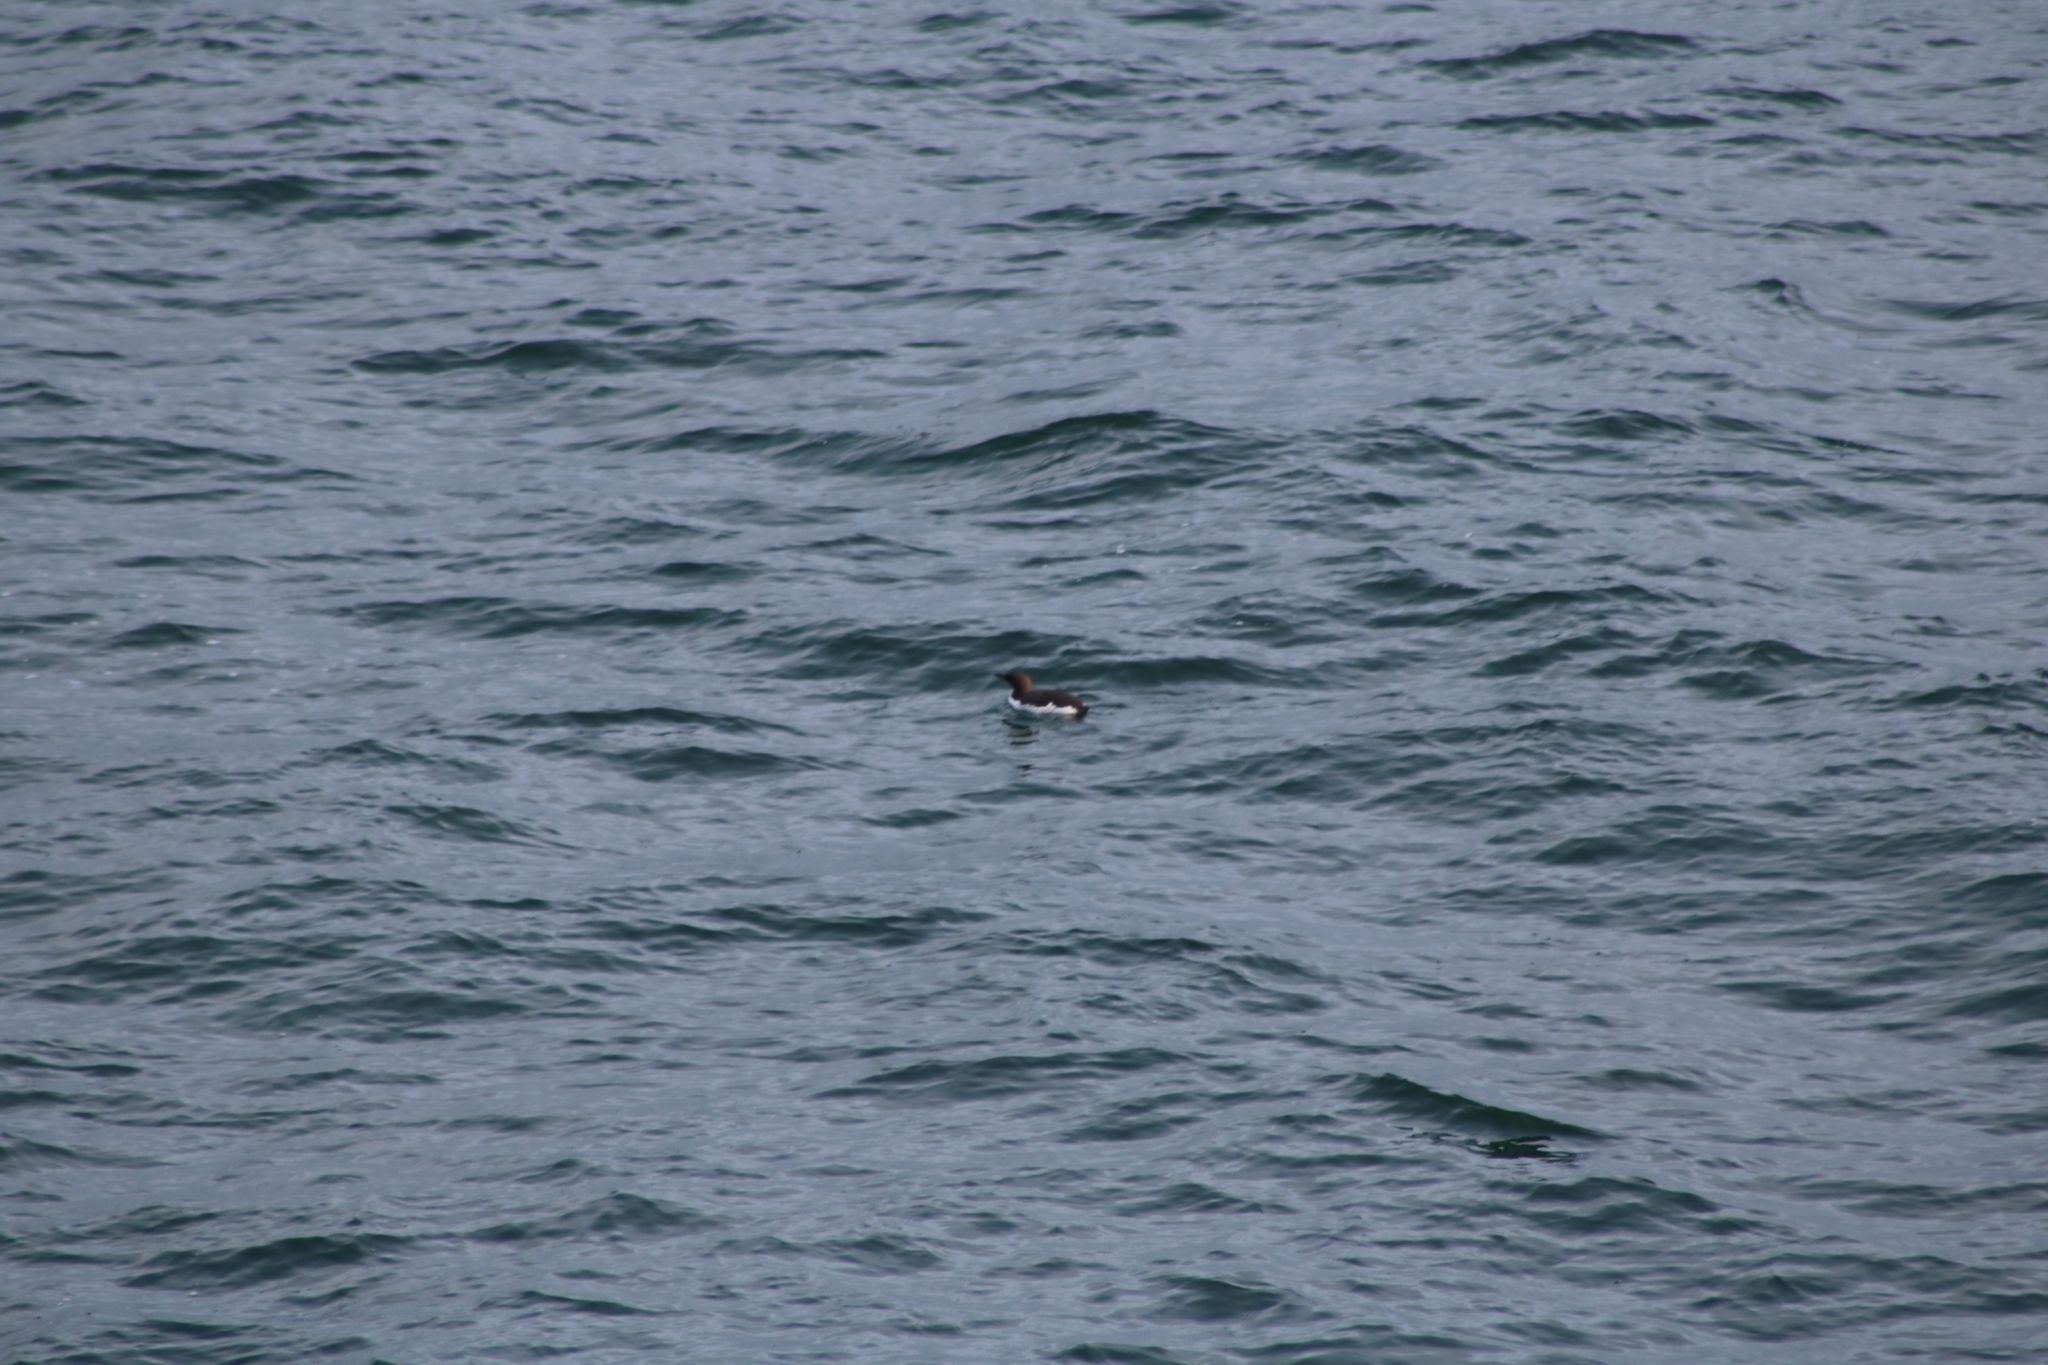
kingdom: Animalia
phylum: Chordata
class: Aves
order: Charadriiformes
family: Alcidae
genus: Uria
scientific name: Uria aalge
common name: Common murre
